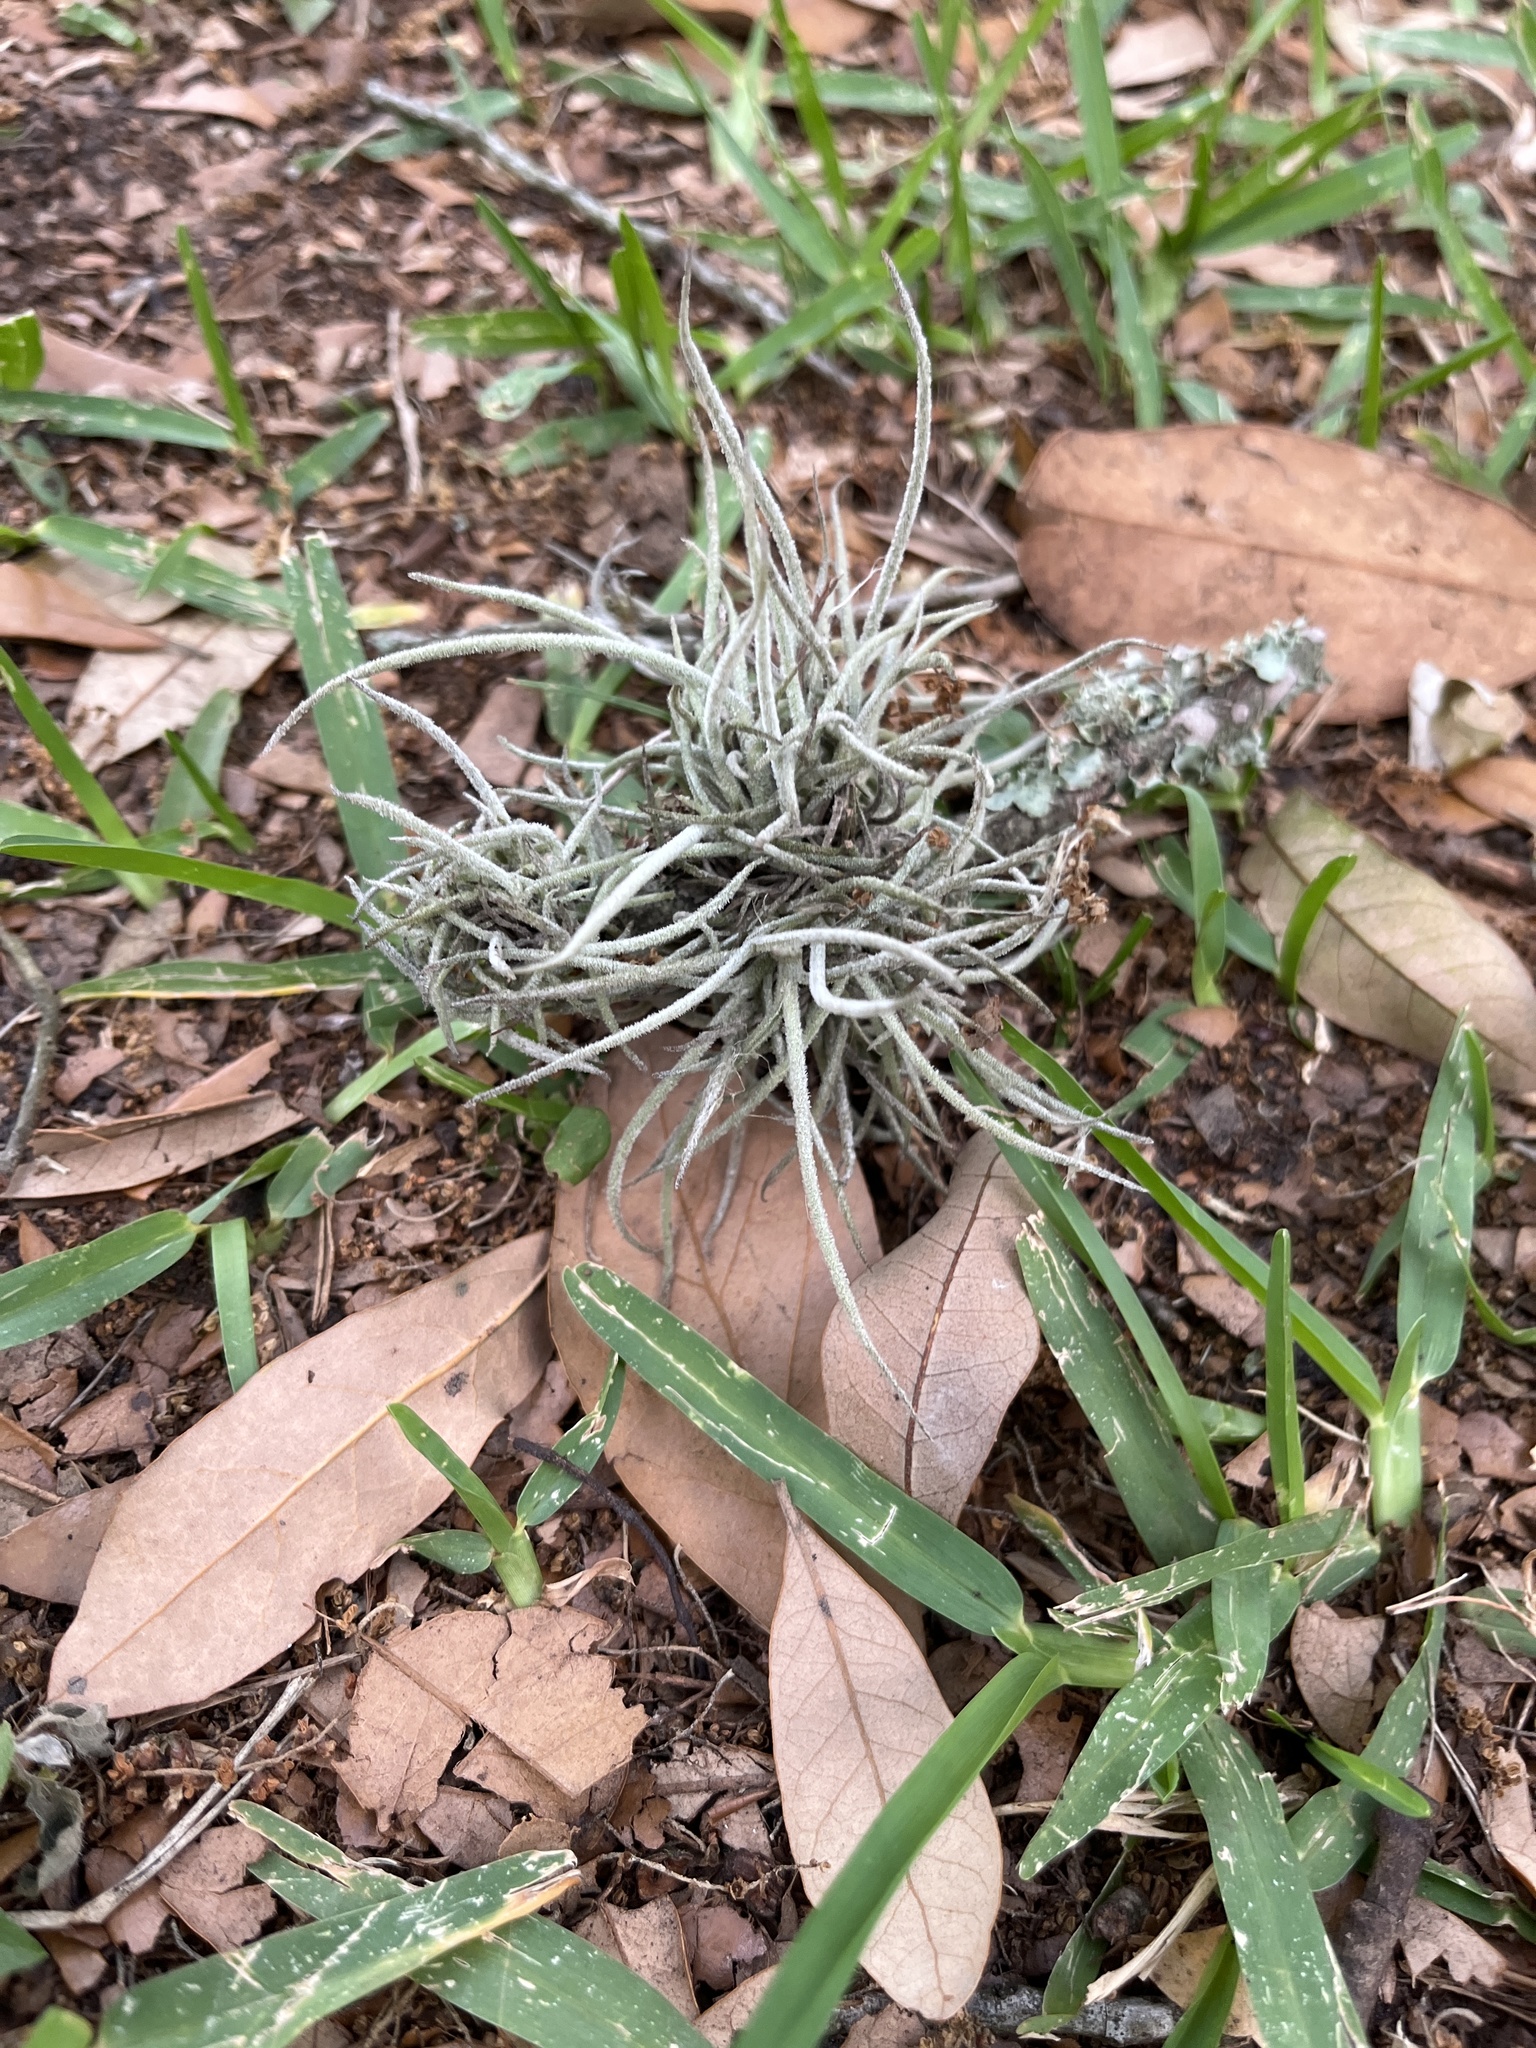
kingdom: Plantae
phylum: Tracheophyta
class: Liliopsida
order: Poales
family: Bromeliaceae
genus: Tillandsia
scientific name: Tillandsia recurvata
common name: Small ballmoss
